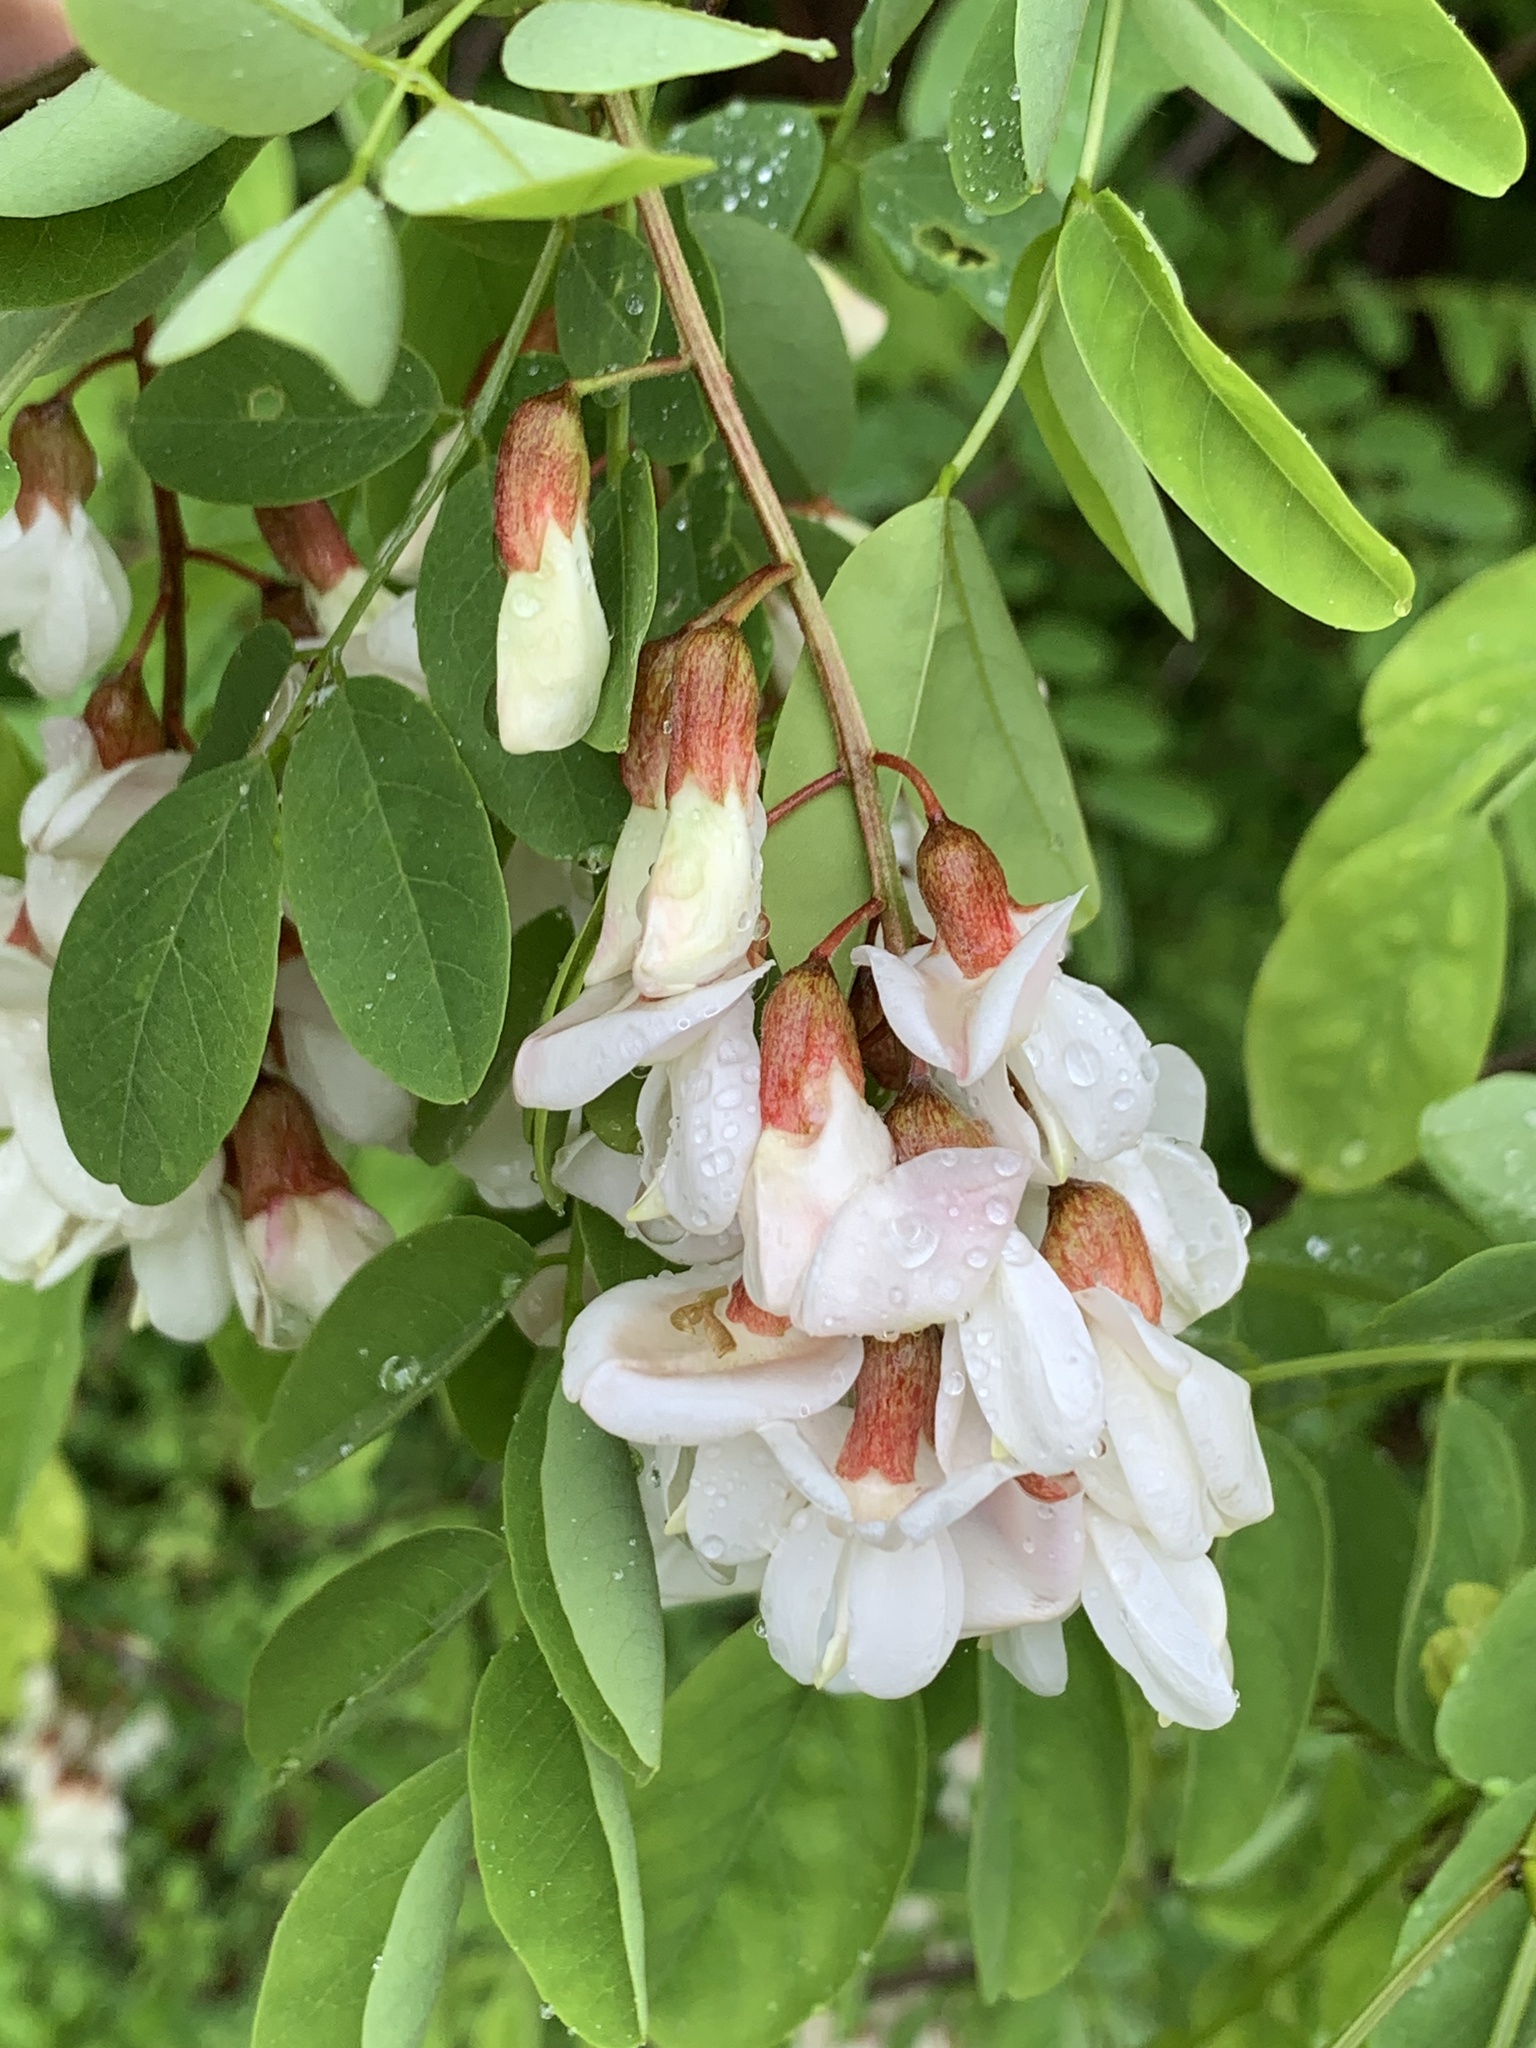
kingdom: Plantae
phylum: Tracheophyta
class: Magnoliopsida
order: Fabales
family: Fabaceae
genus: Robinia
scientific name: Robinia pseudoacacia
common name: Black locust
